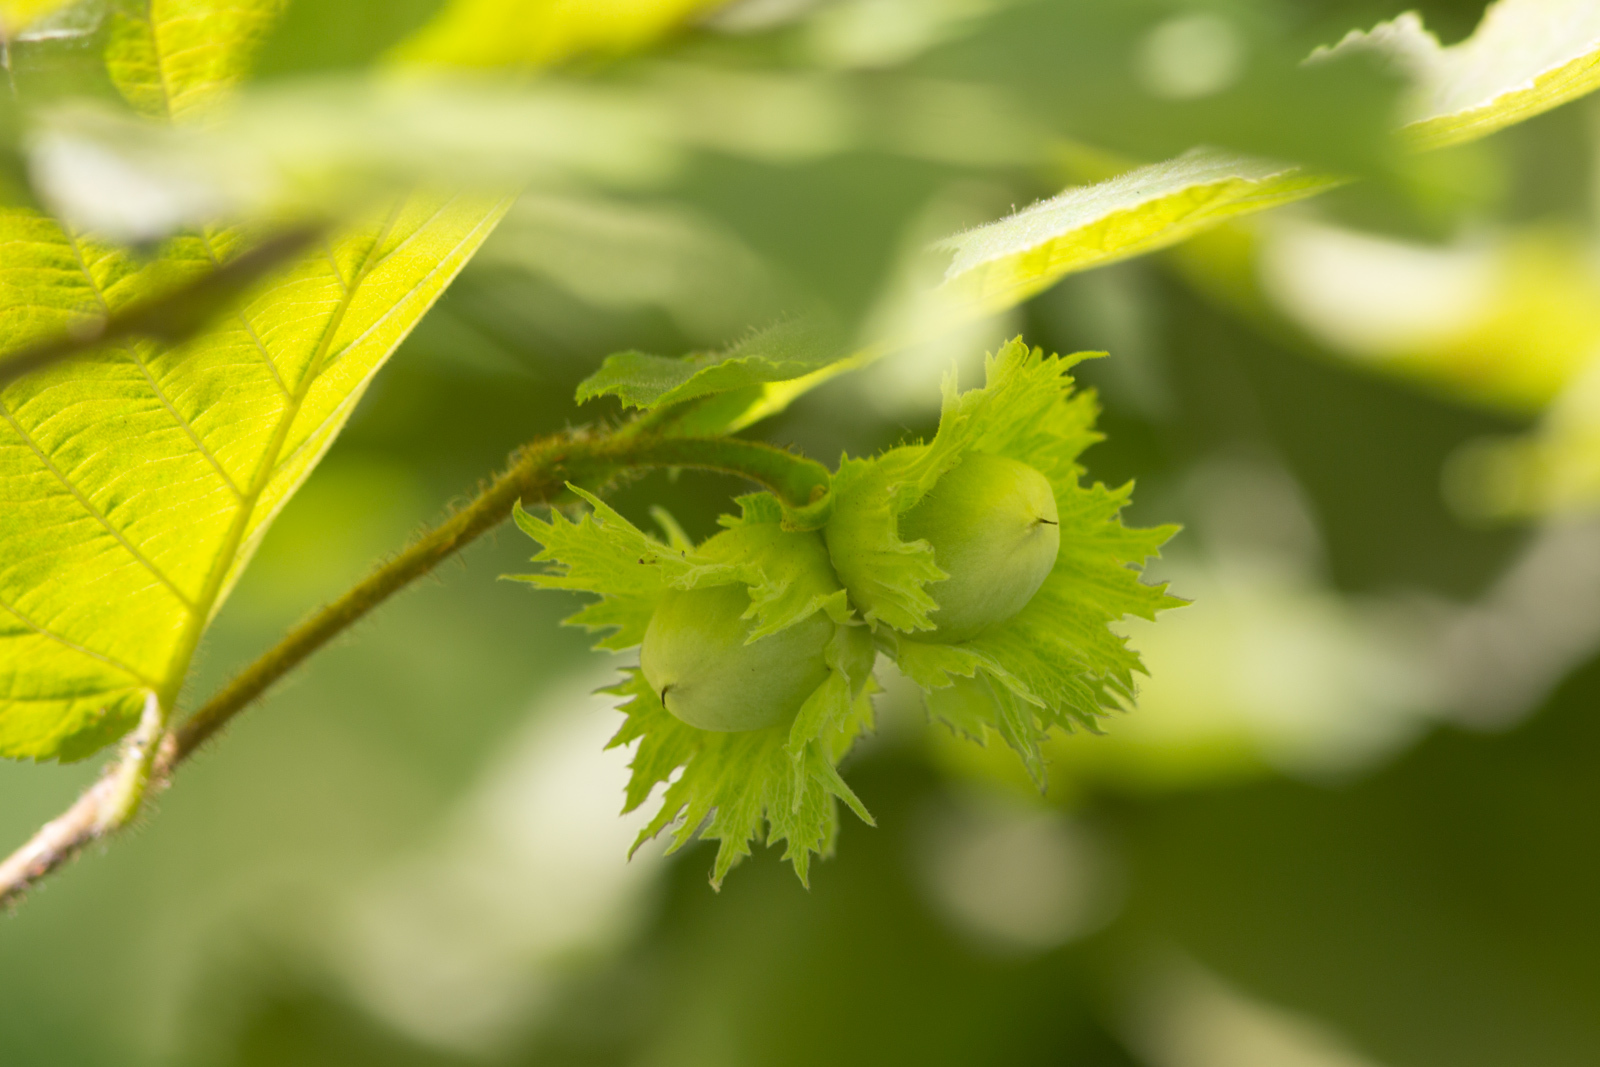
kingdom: Plantae
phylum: Tracheophyta
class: Magnoliopsida
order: Fagales
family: Betulaceae
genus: Corylus
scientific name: Corylus avellana
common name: European hazel
